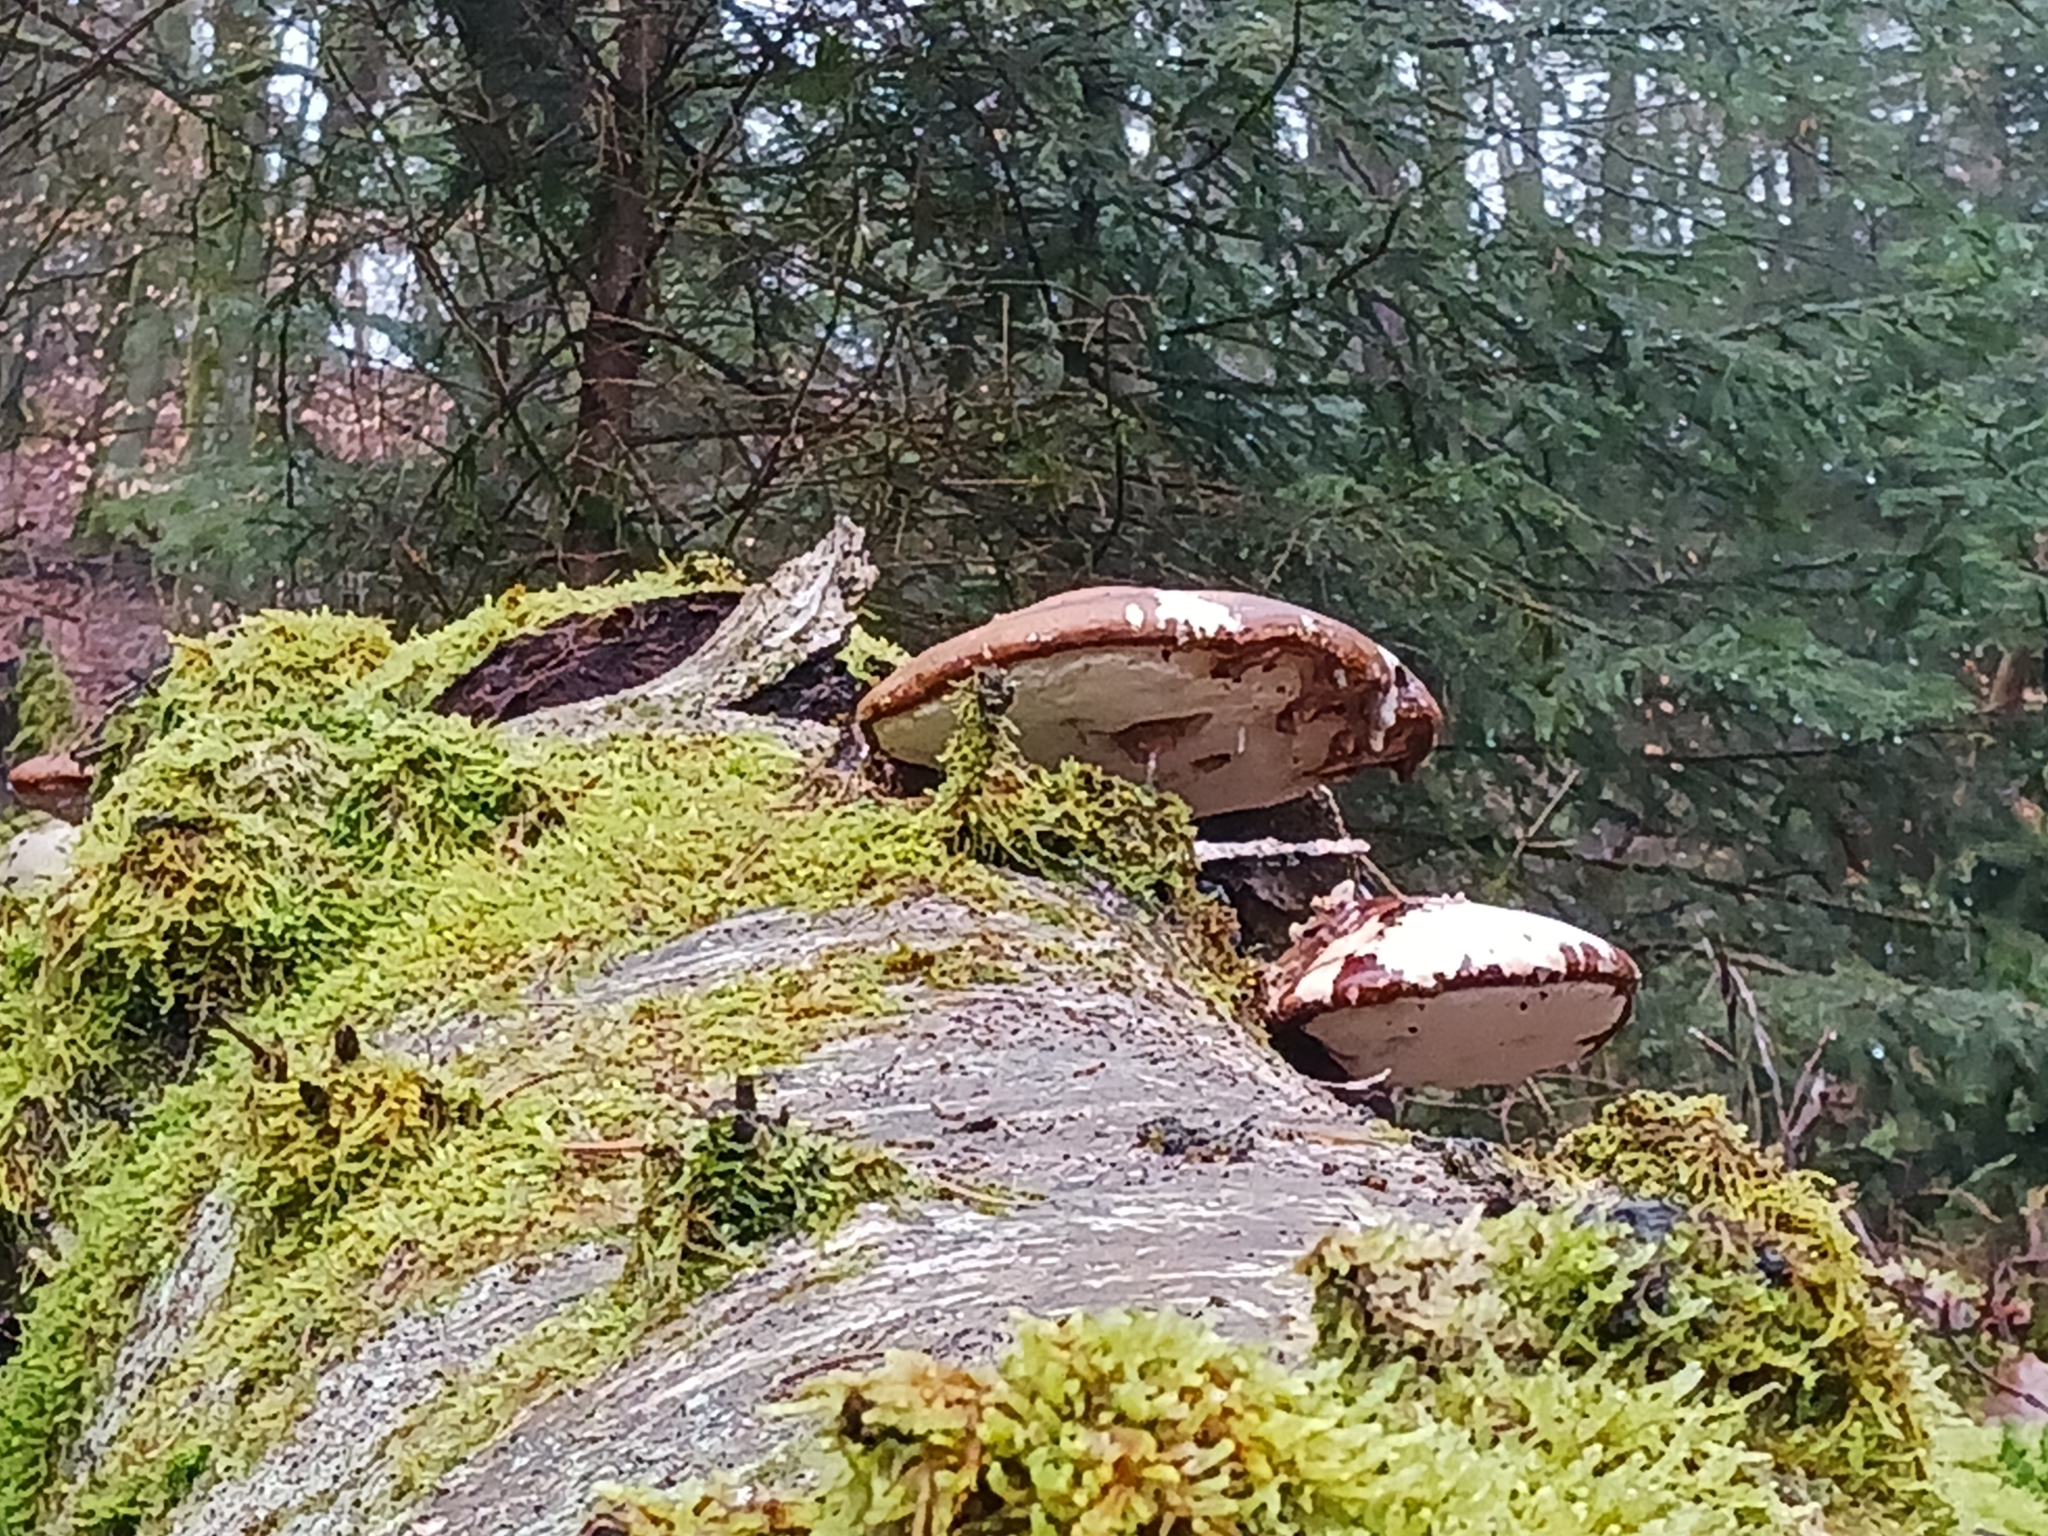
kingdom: Fungi
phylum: Basidiomycota
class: Agaricomycetes
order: Polyporales
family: Fomitopsidaceae
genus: Fomitopsis
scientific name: Fomitopsis betulina
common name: Birch polypore
